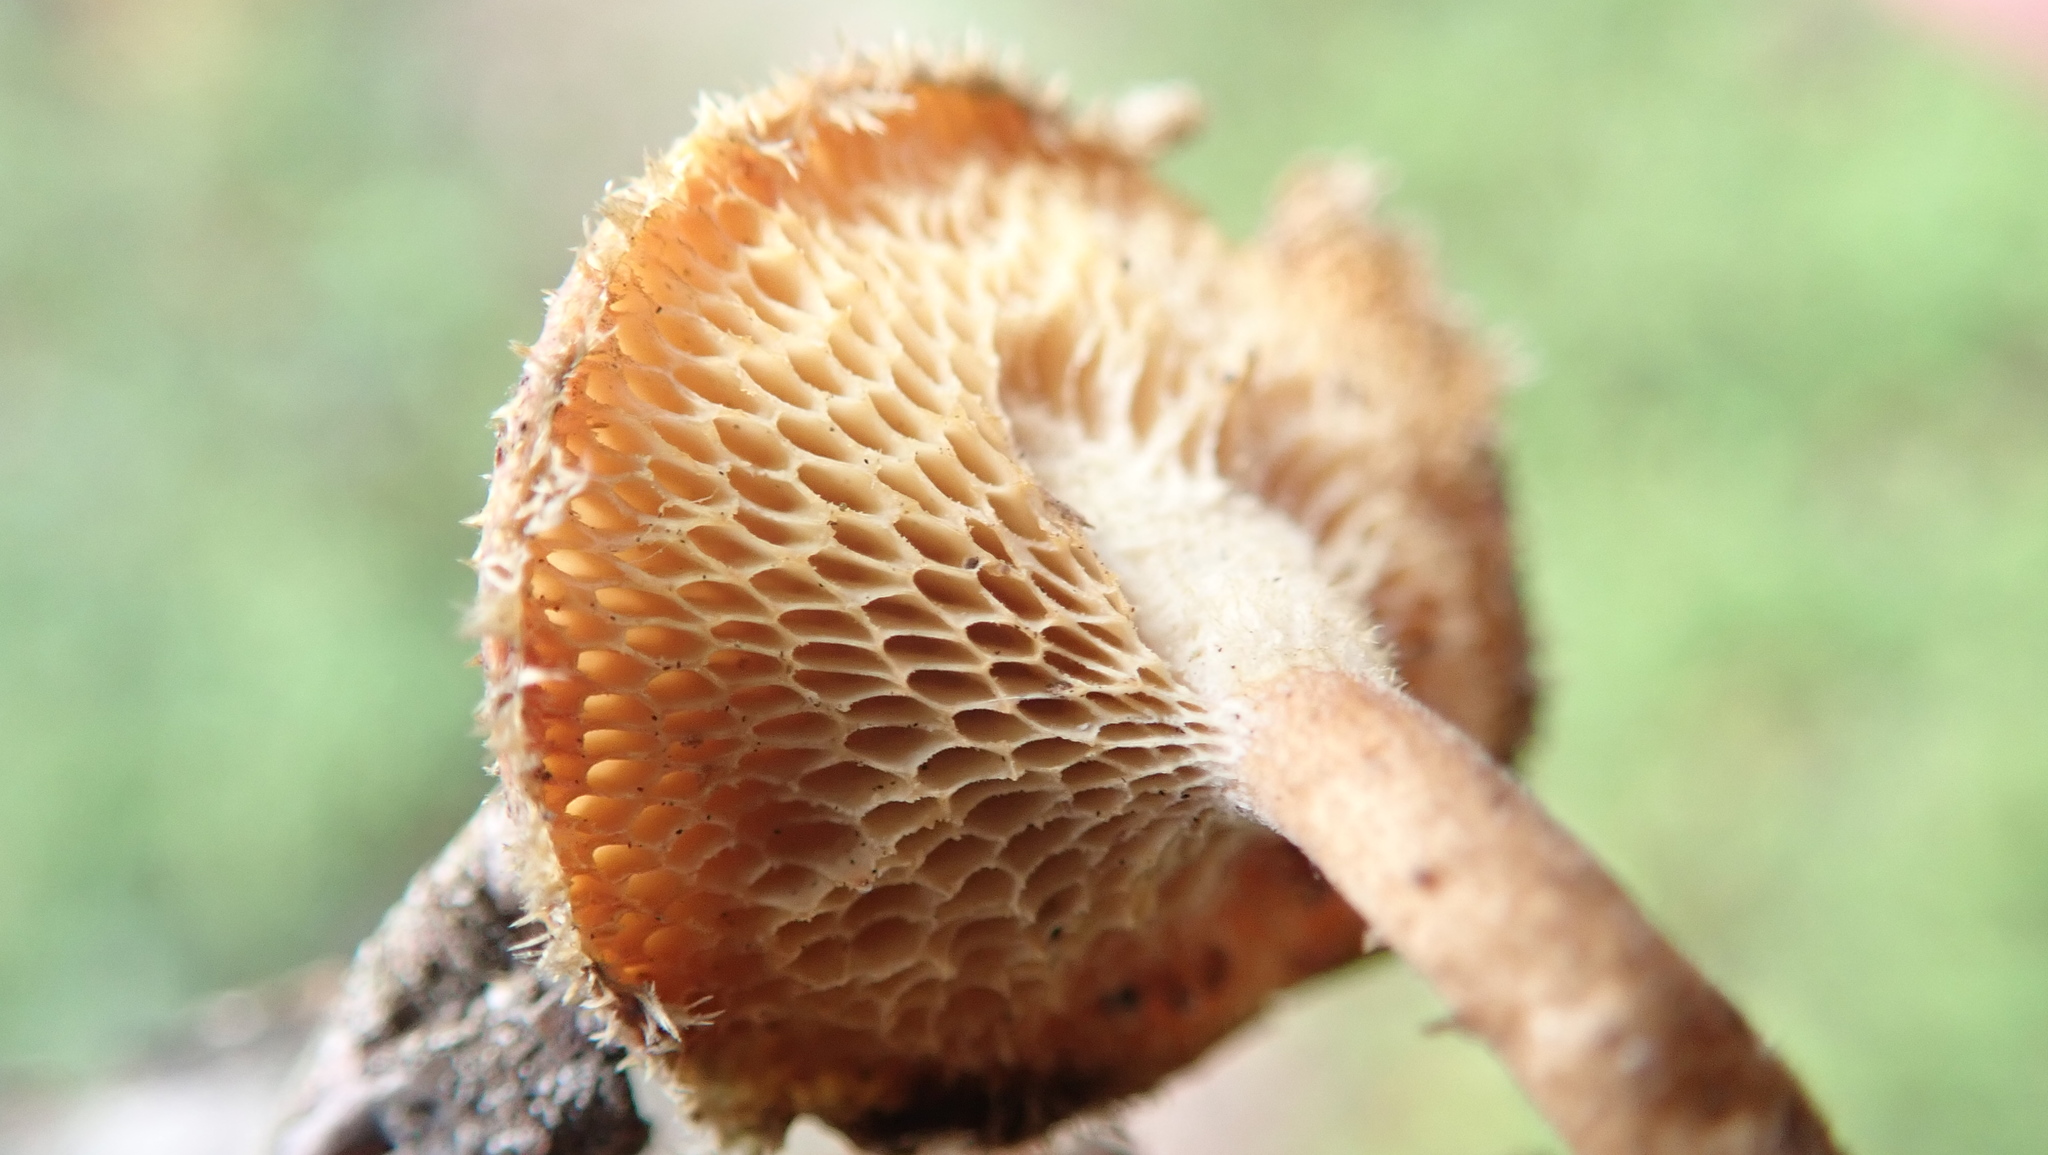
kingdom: Fungi
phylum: Basidiomycota
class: Agaricomycetes
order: Polyporales
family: Polyporaceae
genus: Lentinus
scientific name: Lentinus arcularius
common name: Spring polypore
